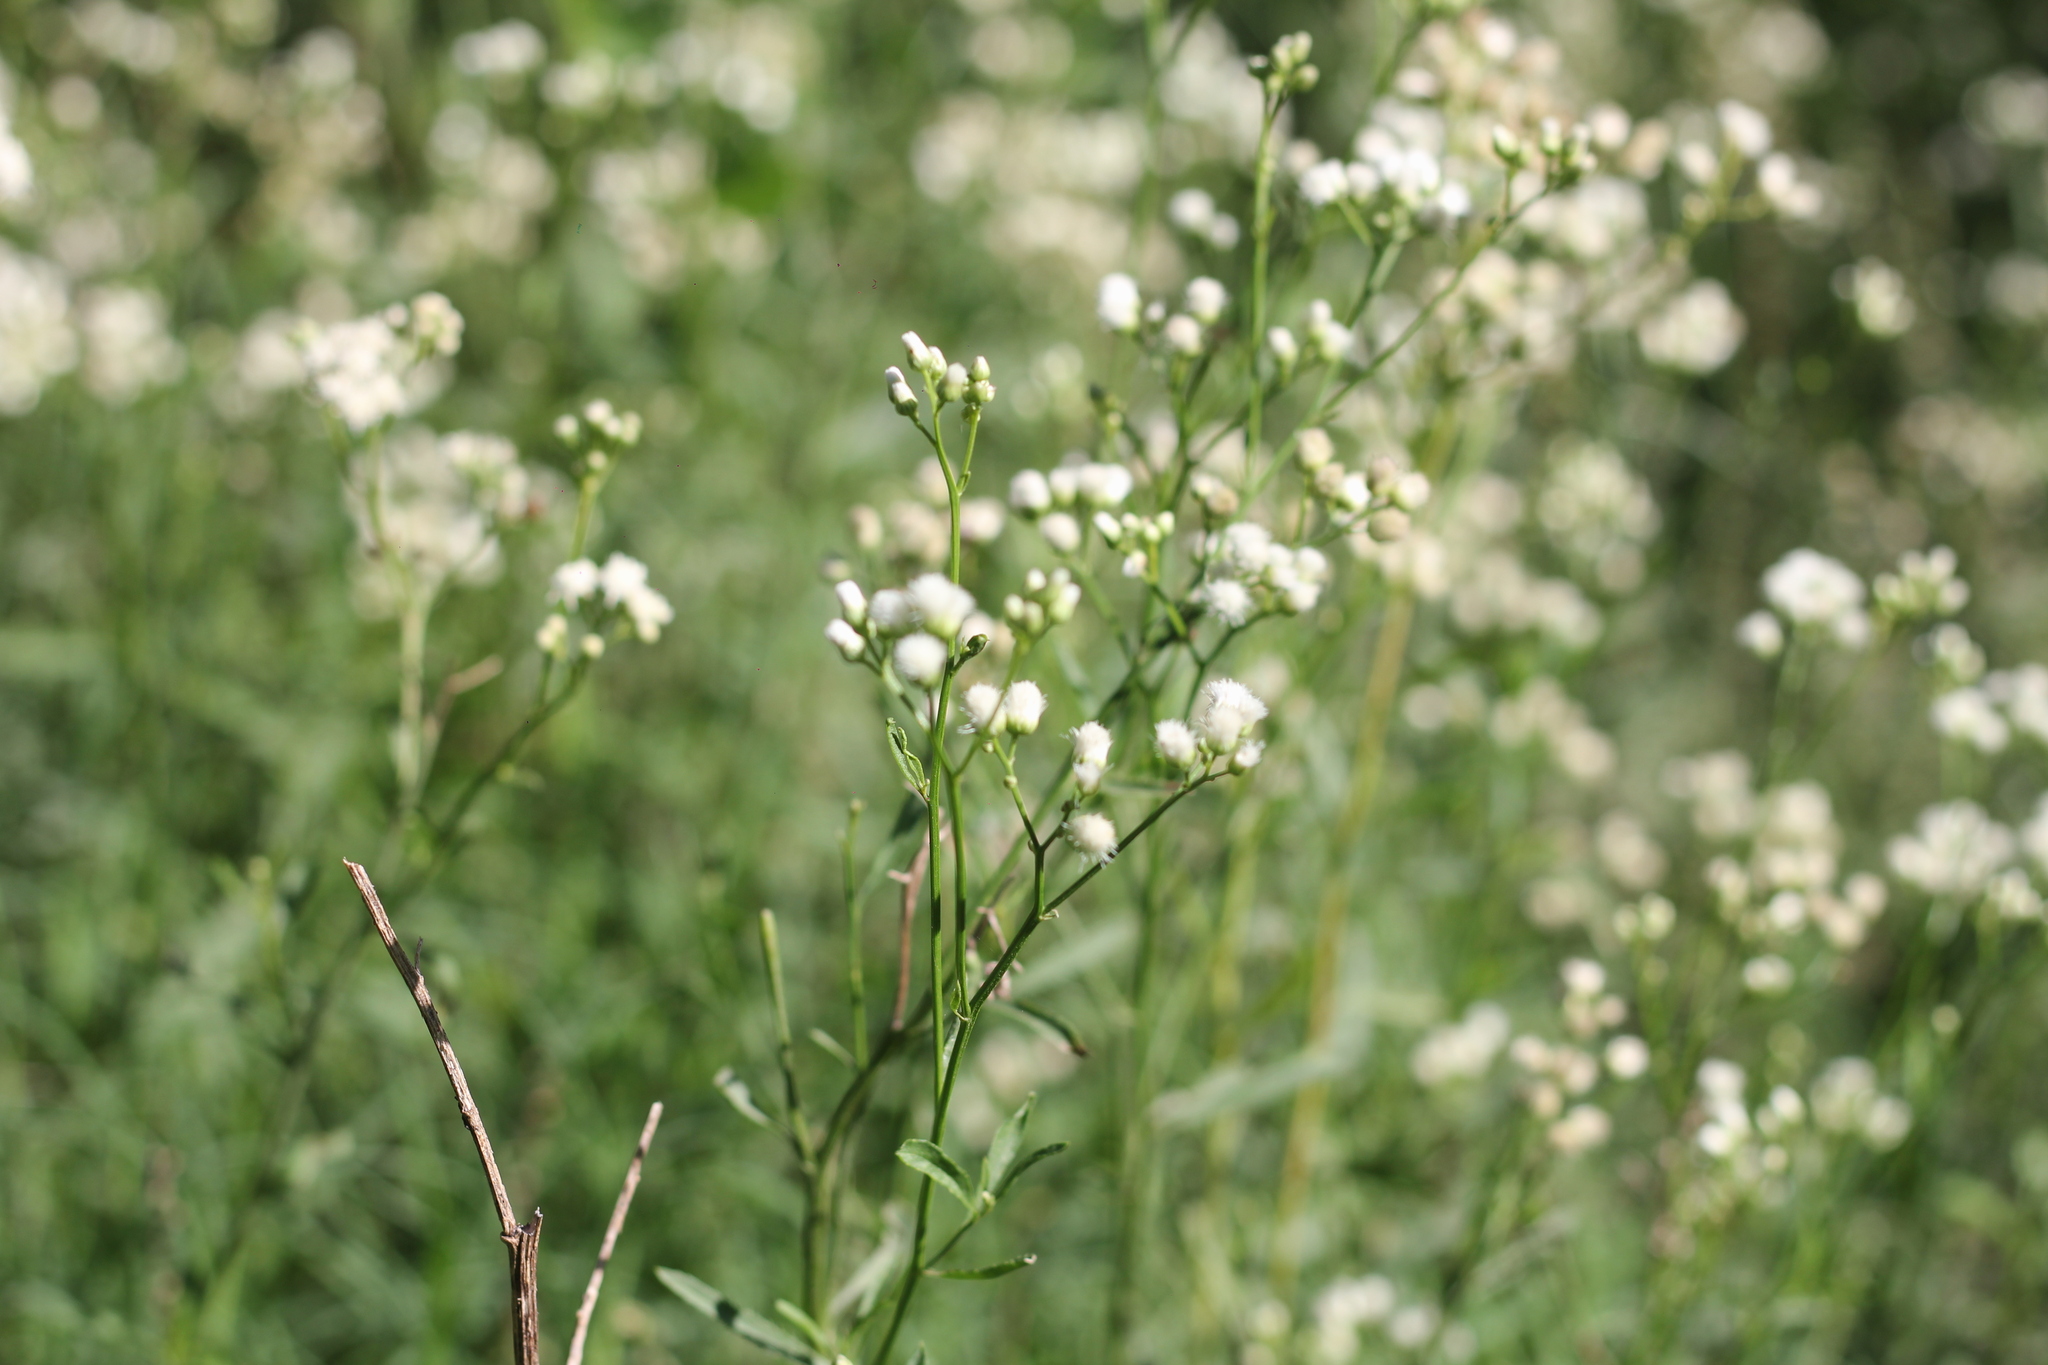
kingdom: Plantae
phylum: Tracheophyta
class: Magnoliopsida
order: Asterales
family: Asteraceae
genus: Baccharis
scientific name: Baccharis glutinosa
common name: Saltmarsh baccharis
